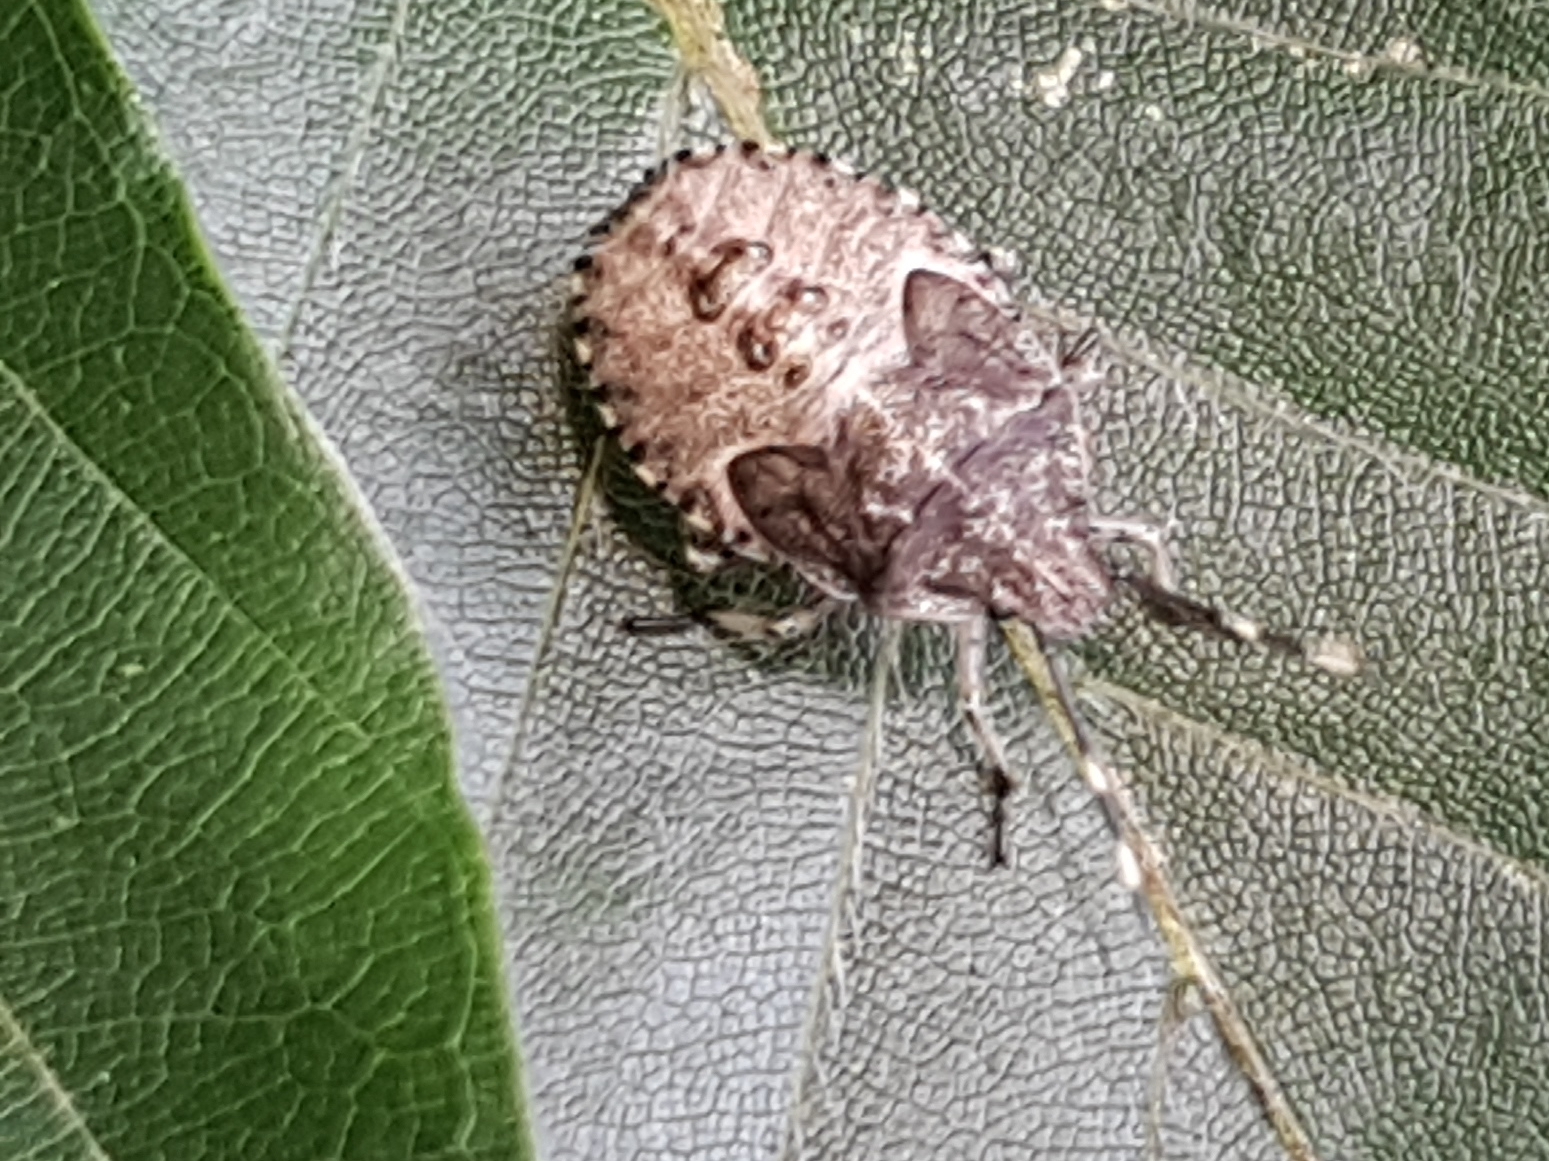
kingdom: Animalia
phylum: Arthropoda
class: Insecta
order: Hemiptera
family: Pentatomidae
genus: Rhaphigaster
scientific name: Rhaphigaster nebulosa
